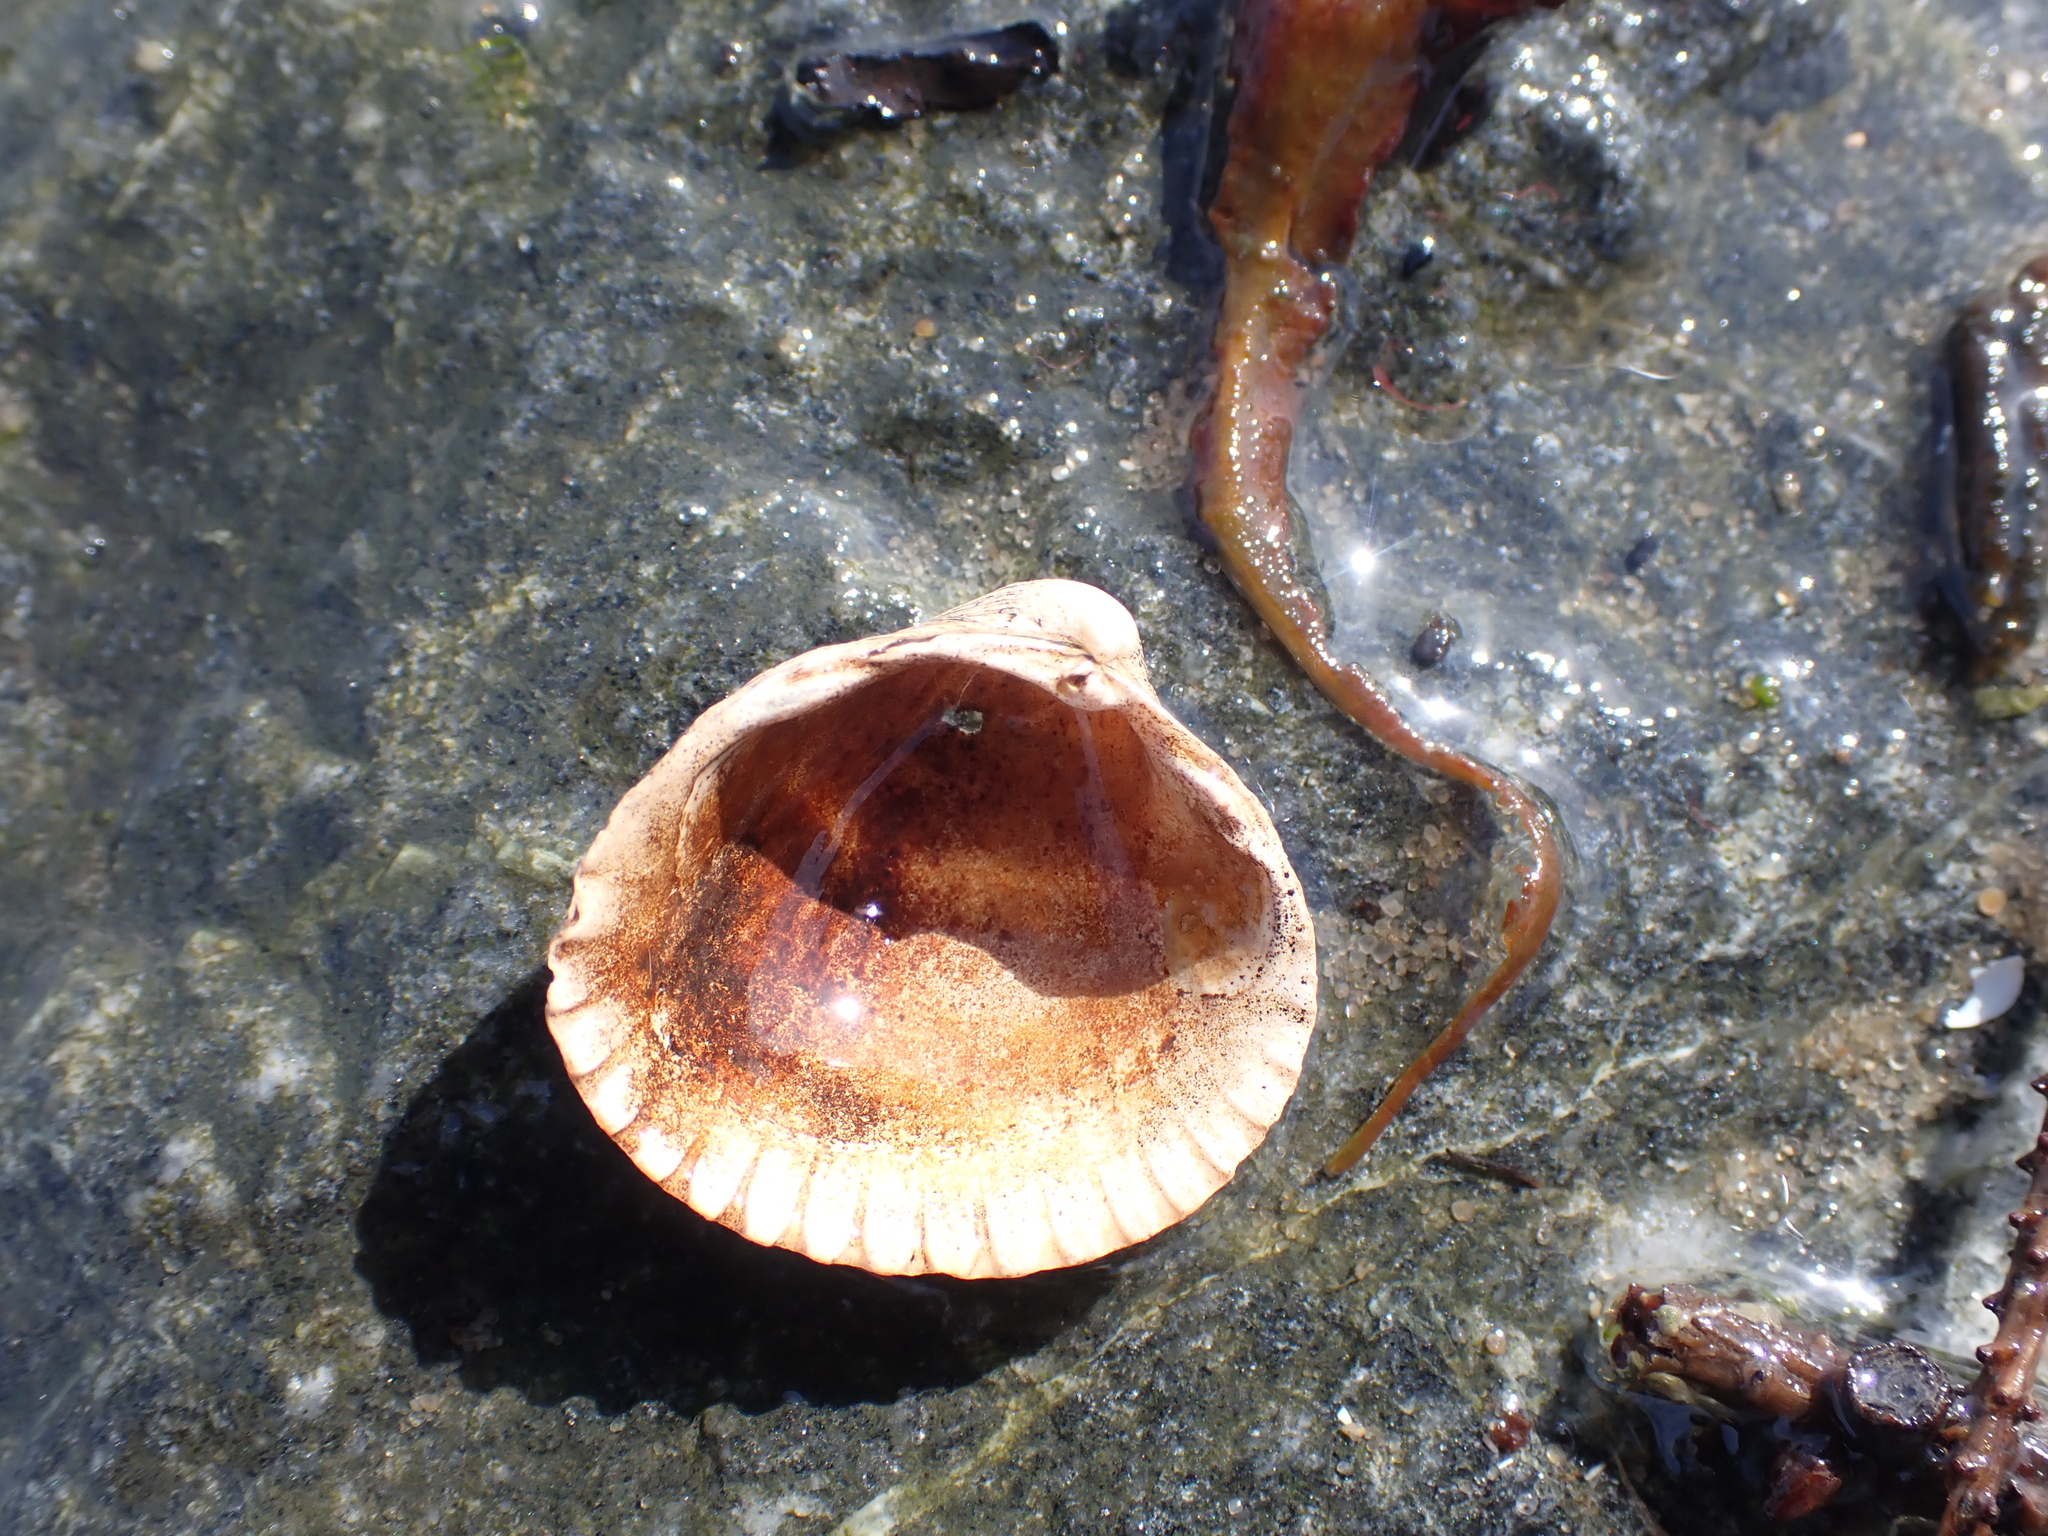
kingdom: Animalia
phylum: Mollusca
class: Bivalvia
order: Cardiida
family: Cardiidae
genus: Cerastoderma
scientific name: Cerastoderma edule
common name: Common cockle
